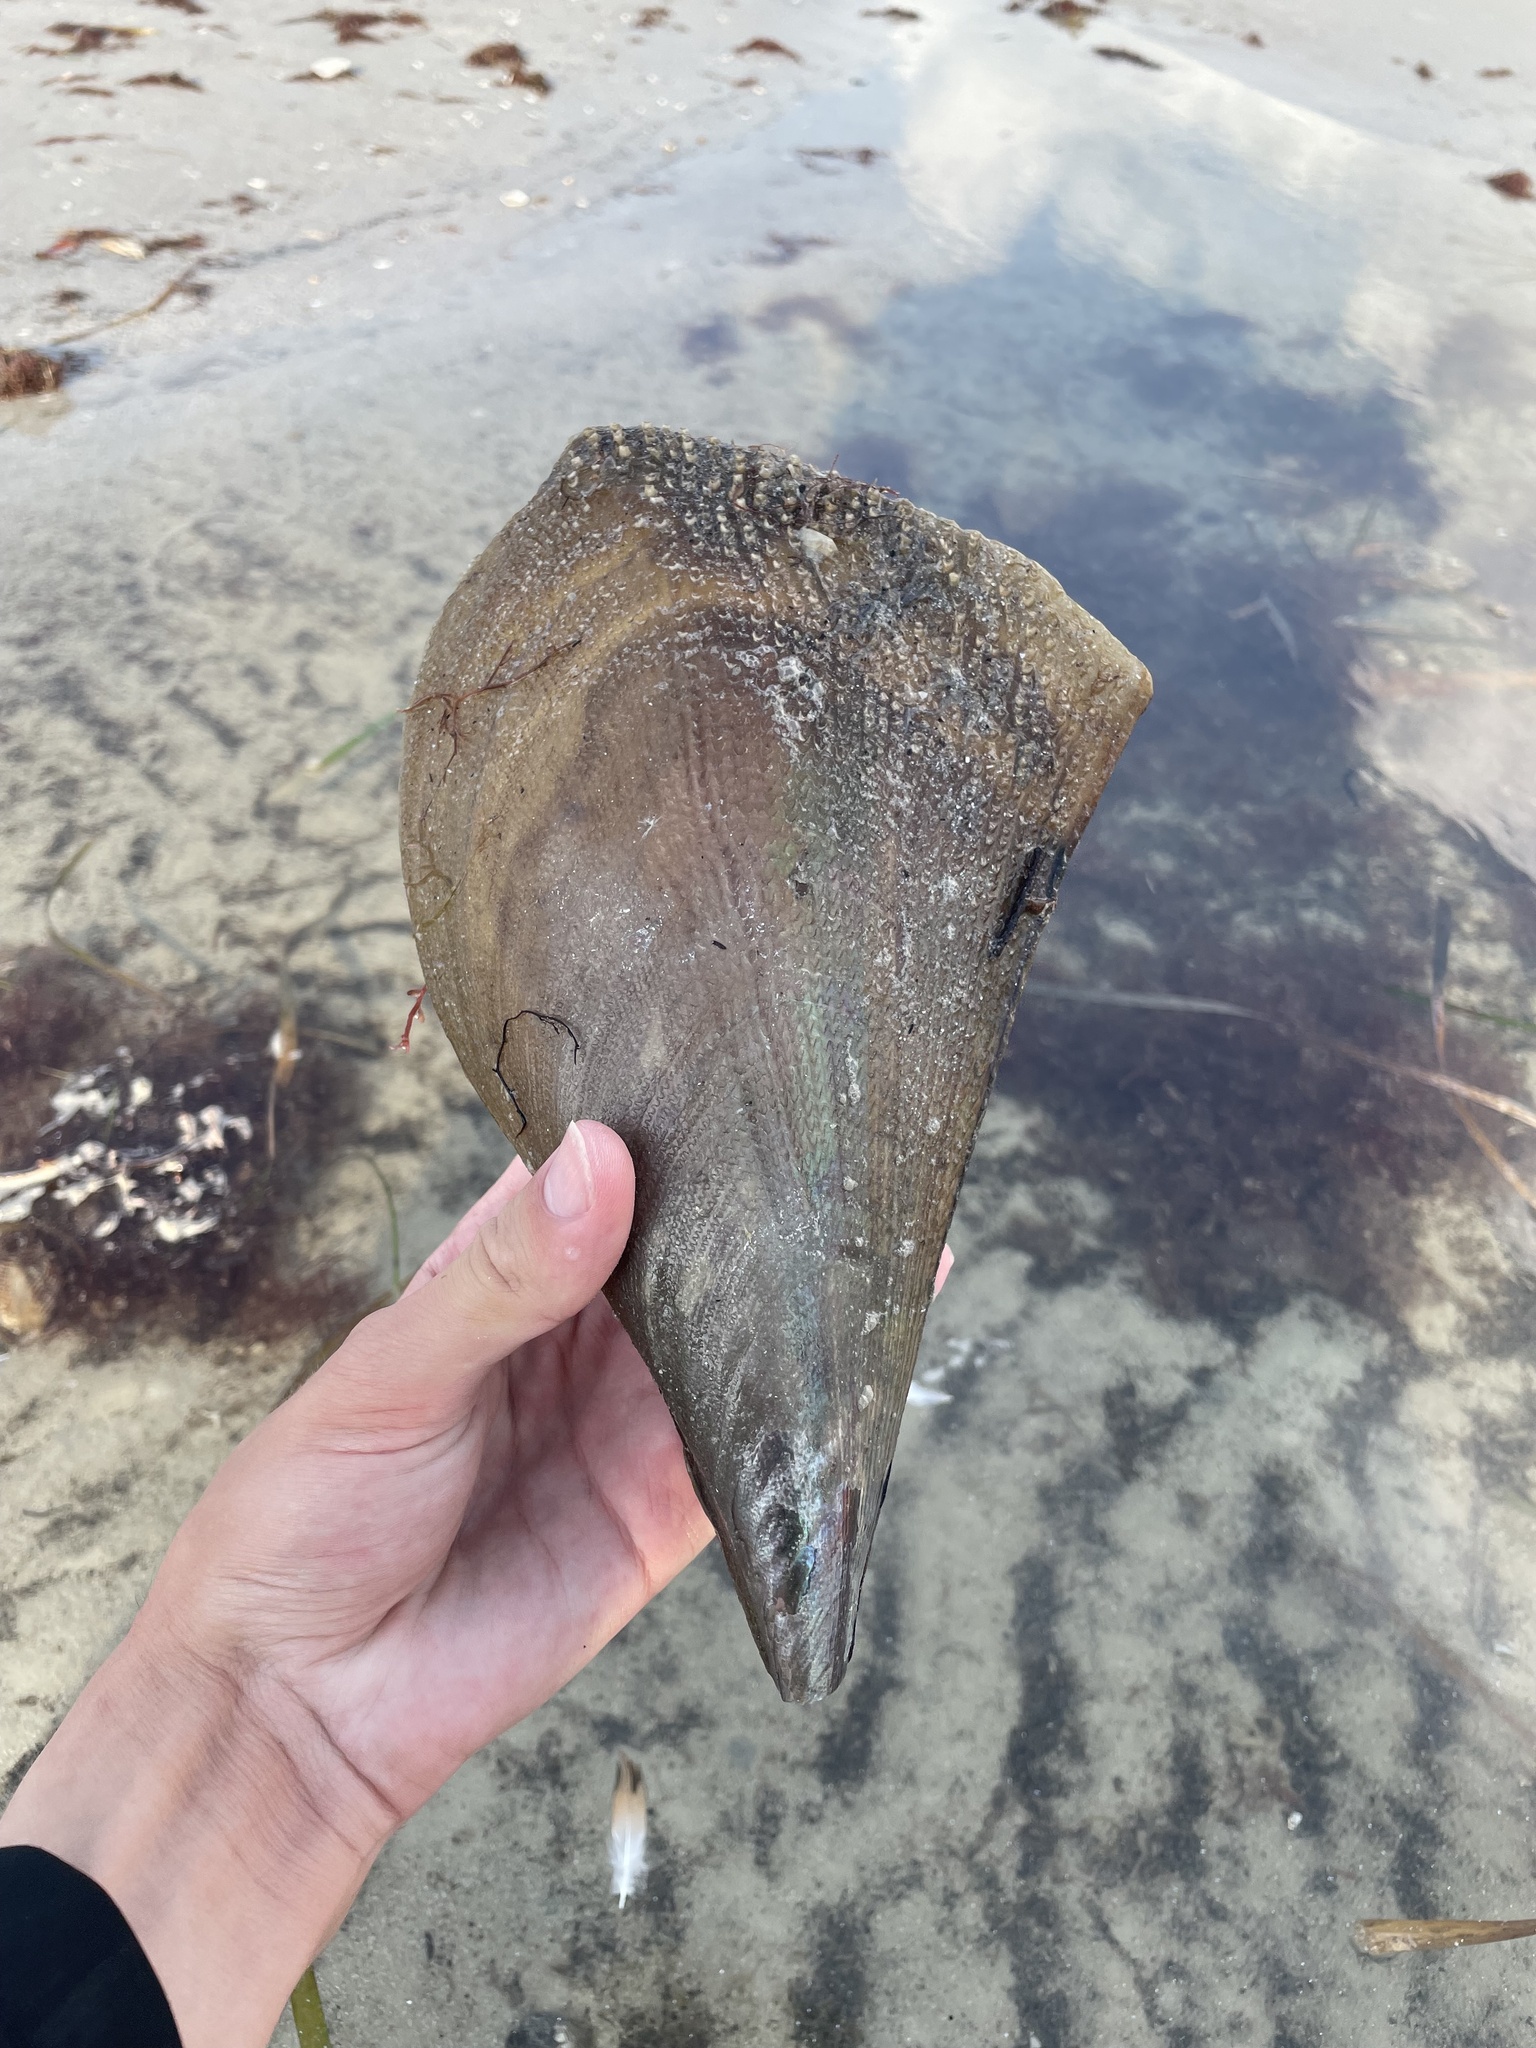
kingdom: Animalia
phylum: Mollusca
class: Bivalvia
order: Ostreida
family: Pinnidae
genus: Atrina
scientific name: Atrina serrata
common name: Saw-toothed penshell
